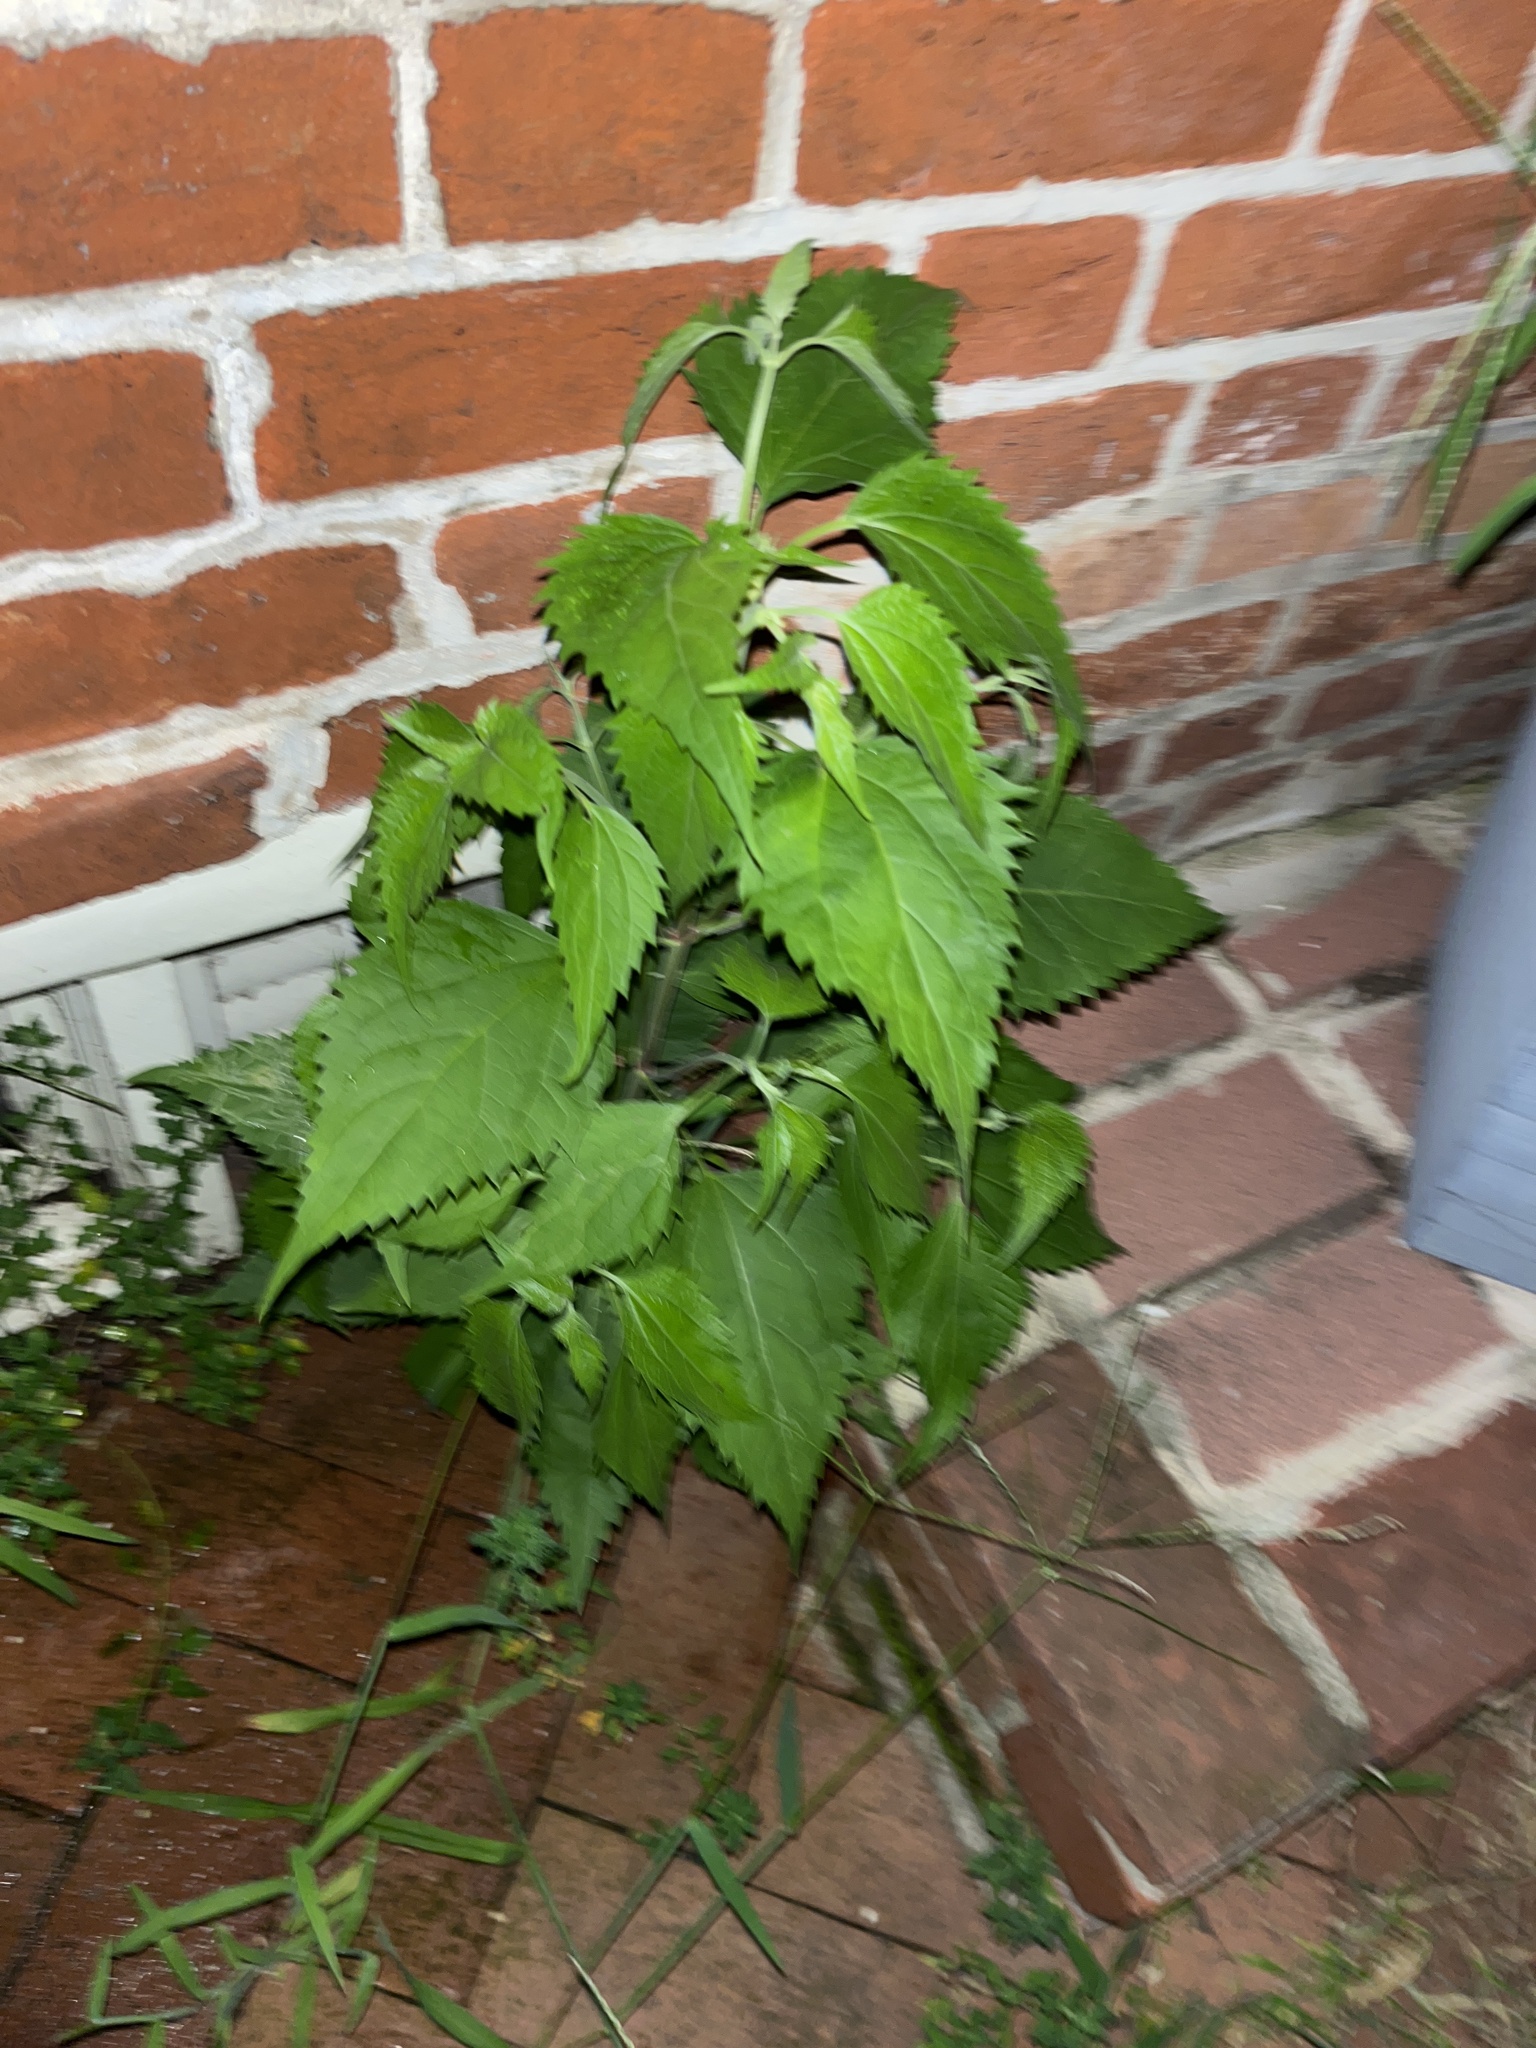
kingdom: Plantae
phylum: Tracheophyta
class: Magnoliopsida
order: Asterales
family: Asteraceae
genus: Ageratina
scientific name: Ageratina altissima
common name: White snakeroot
